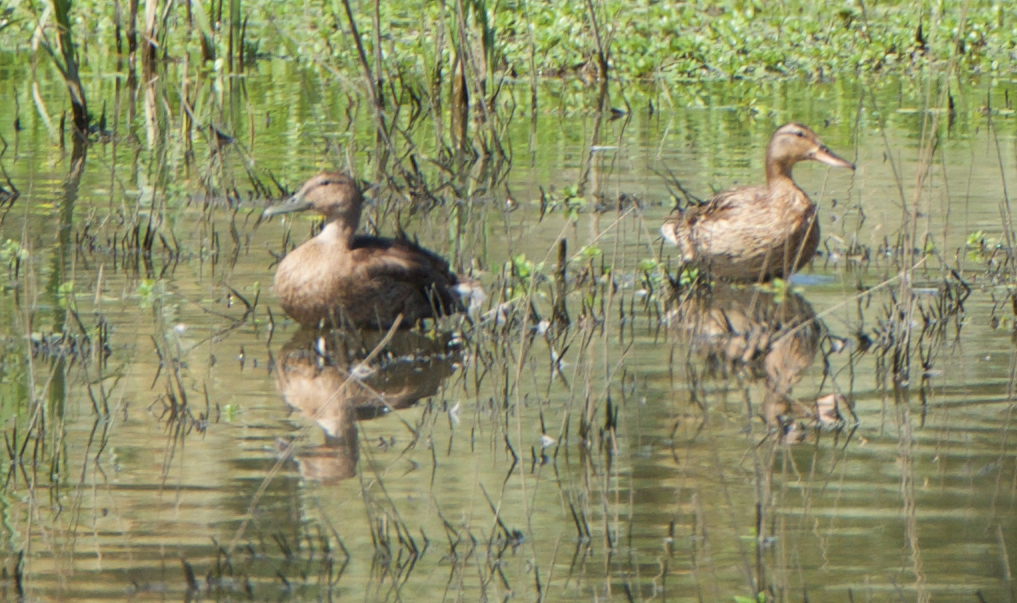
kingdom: Animalia
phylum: Chordata
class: Aves
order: Anseriformes
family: Anatidae
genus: Anas
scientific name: Anas platyrhynchos
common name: Mallard
